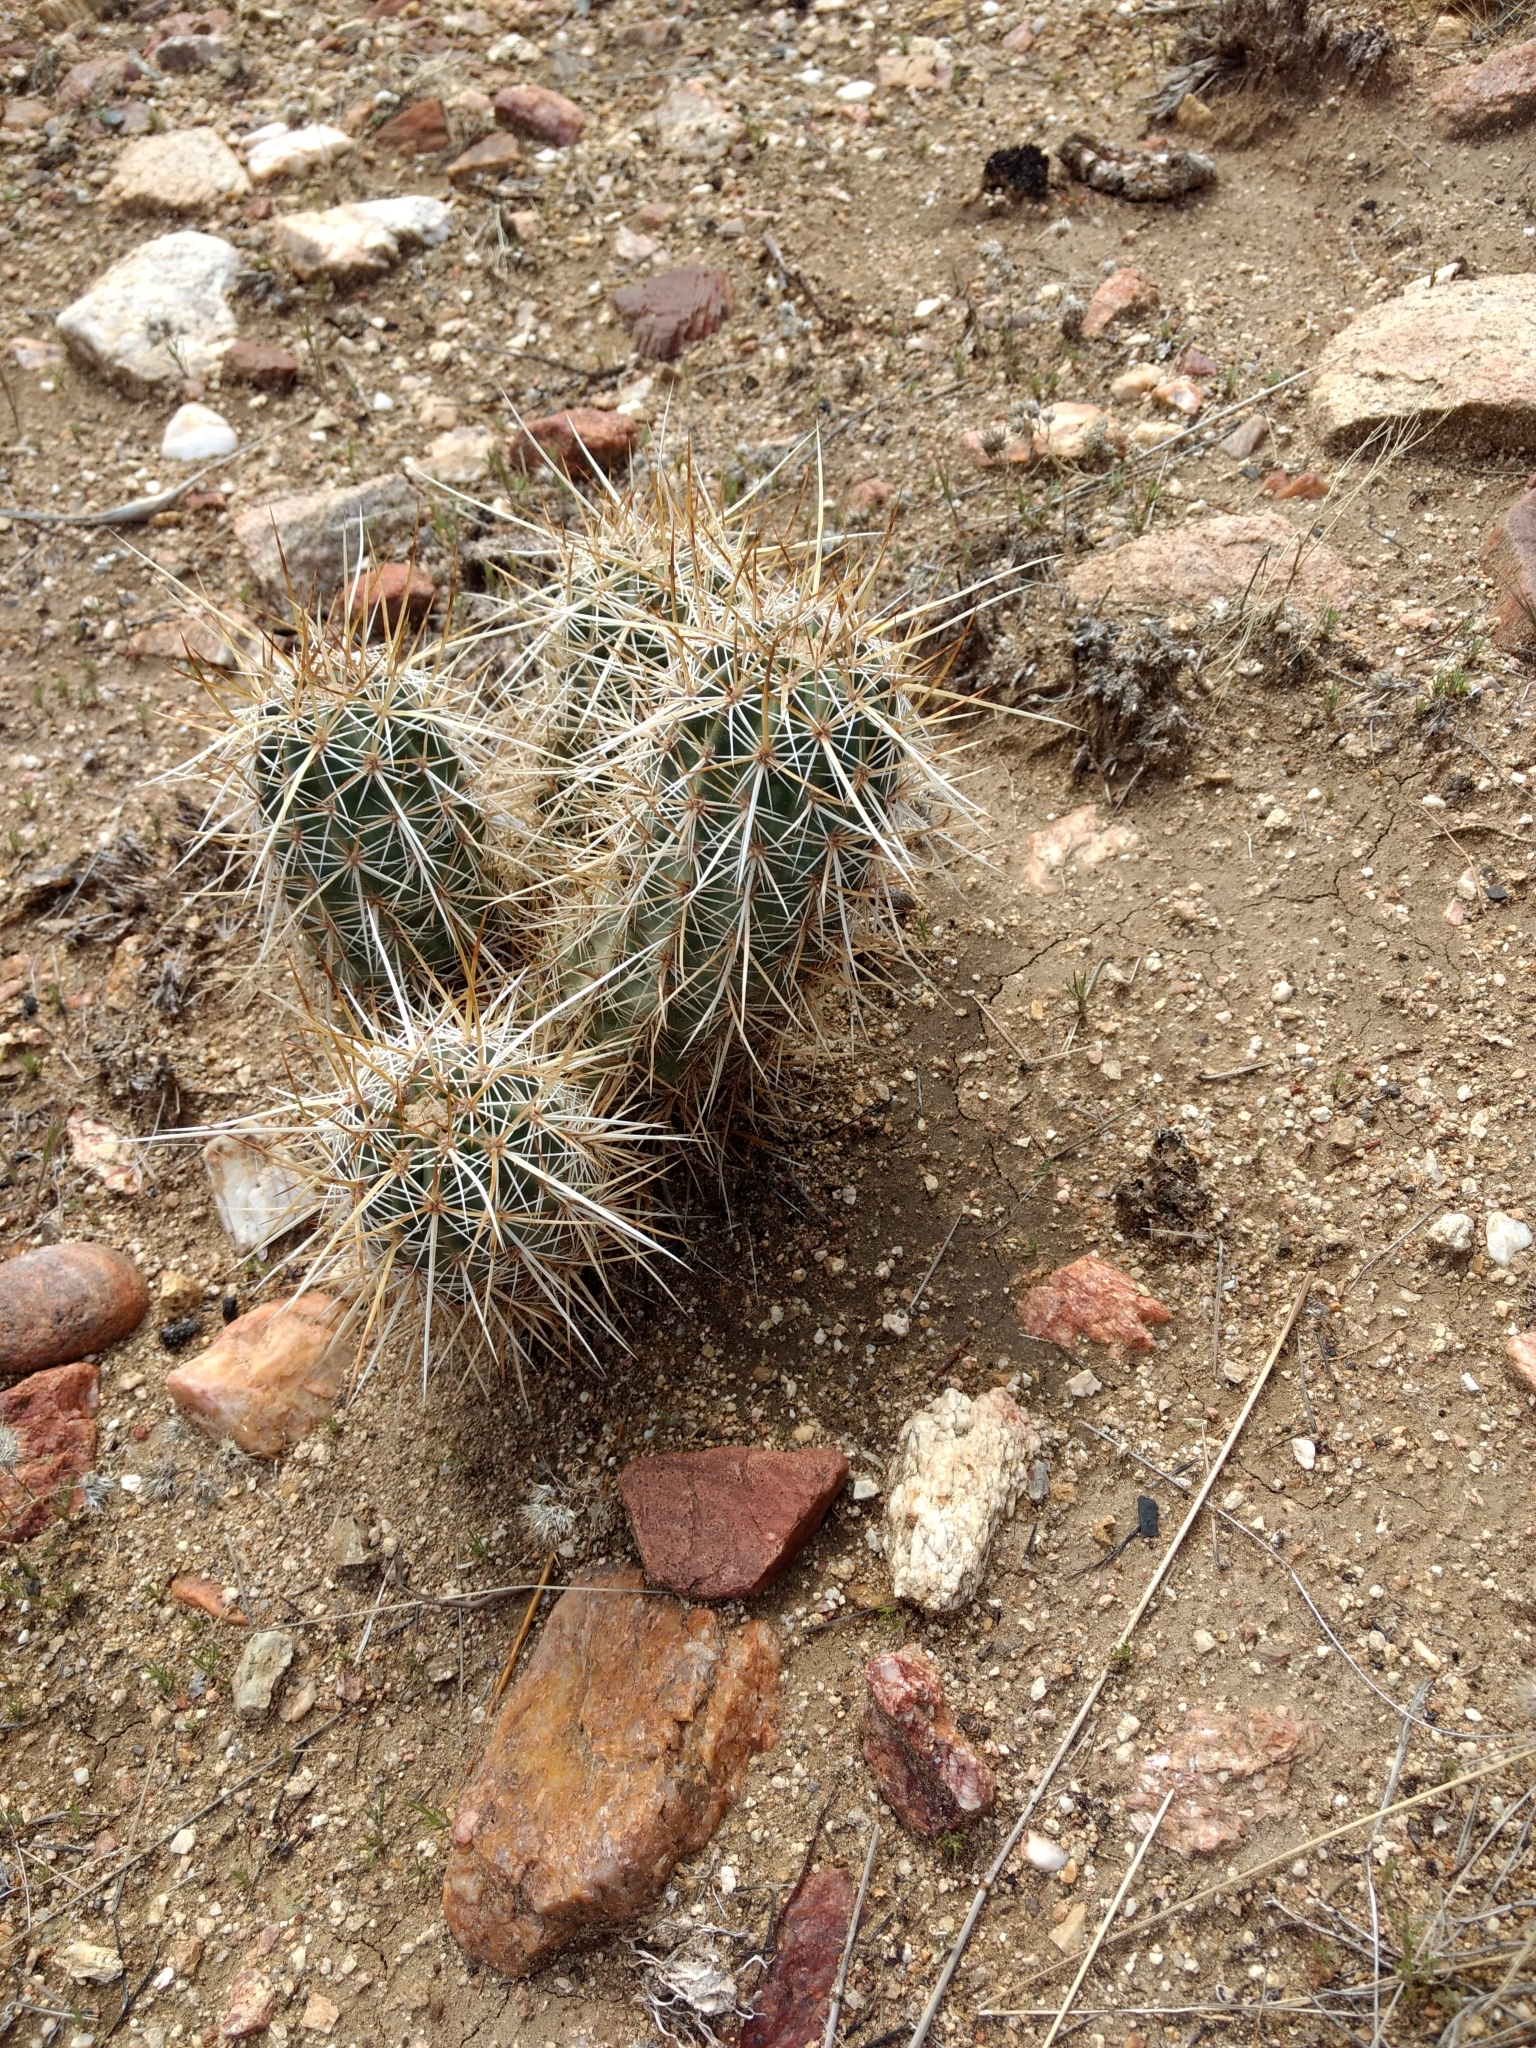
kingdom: Plantae
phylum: Tracheophyta
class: Magnoliopsida
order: Caryophyllales
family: Cactaceae
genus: Echinocereus
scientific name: Echinocereus engelmannii
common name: Engelmann's hedgehog cactus
